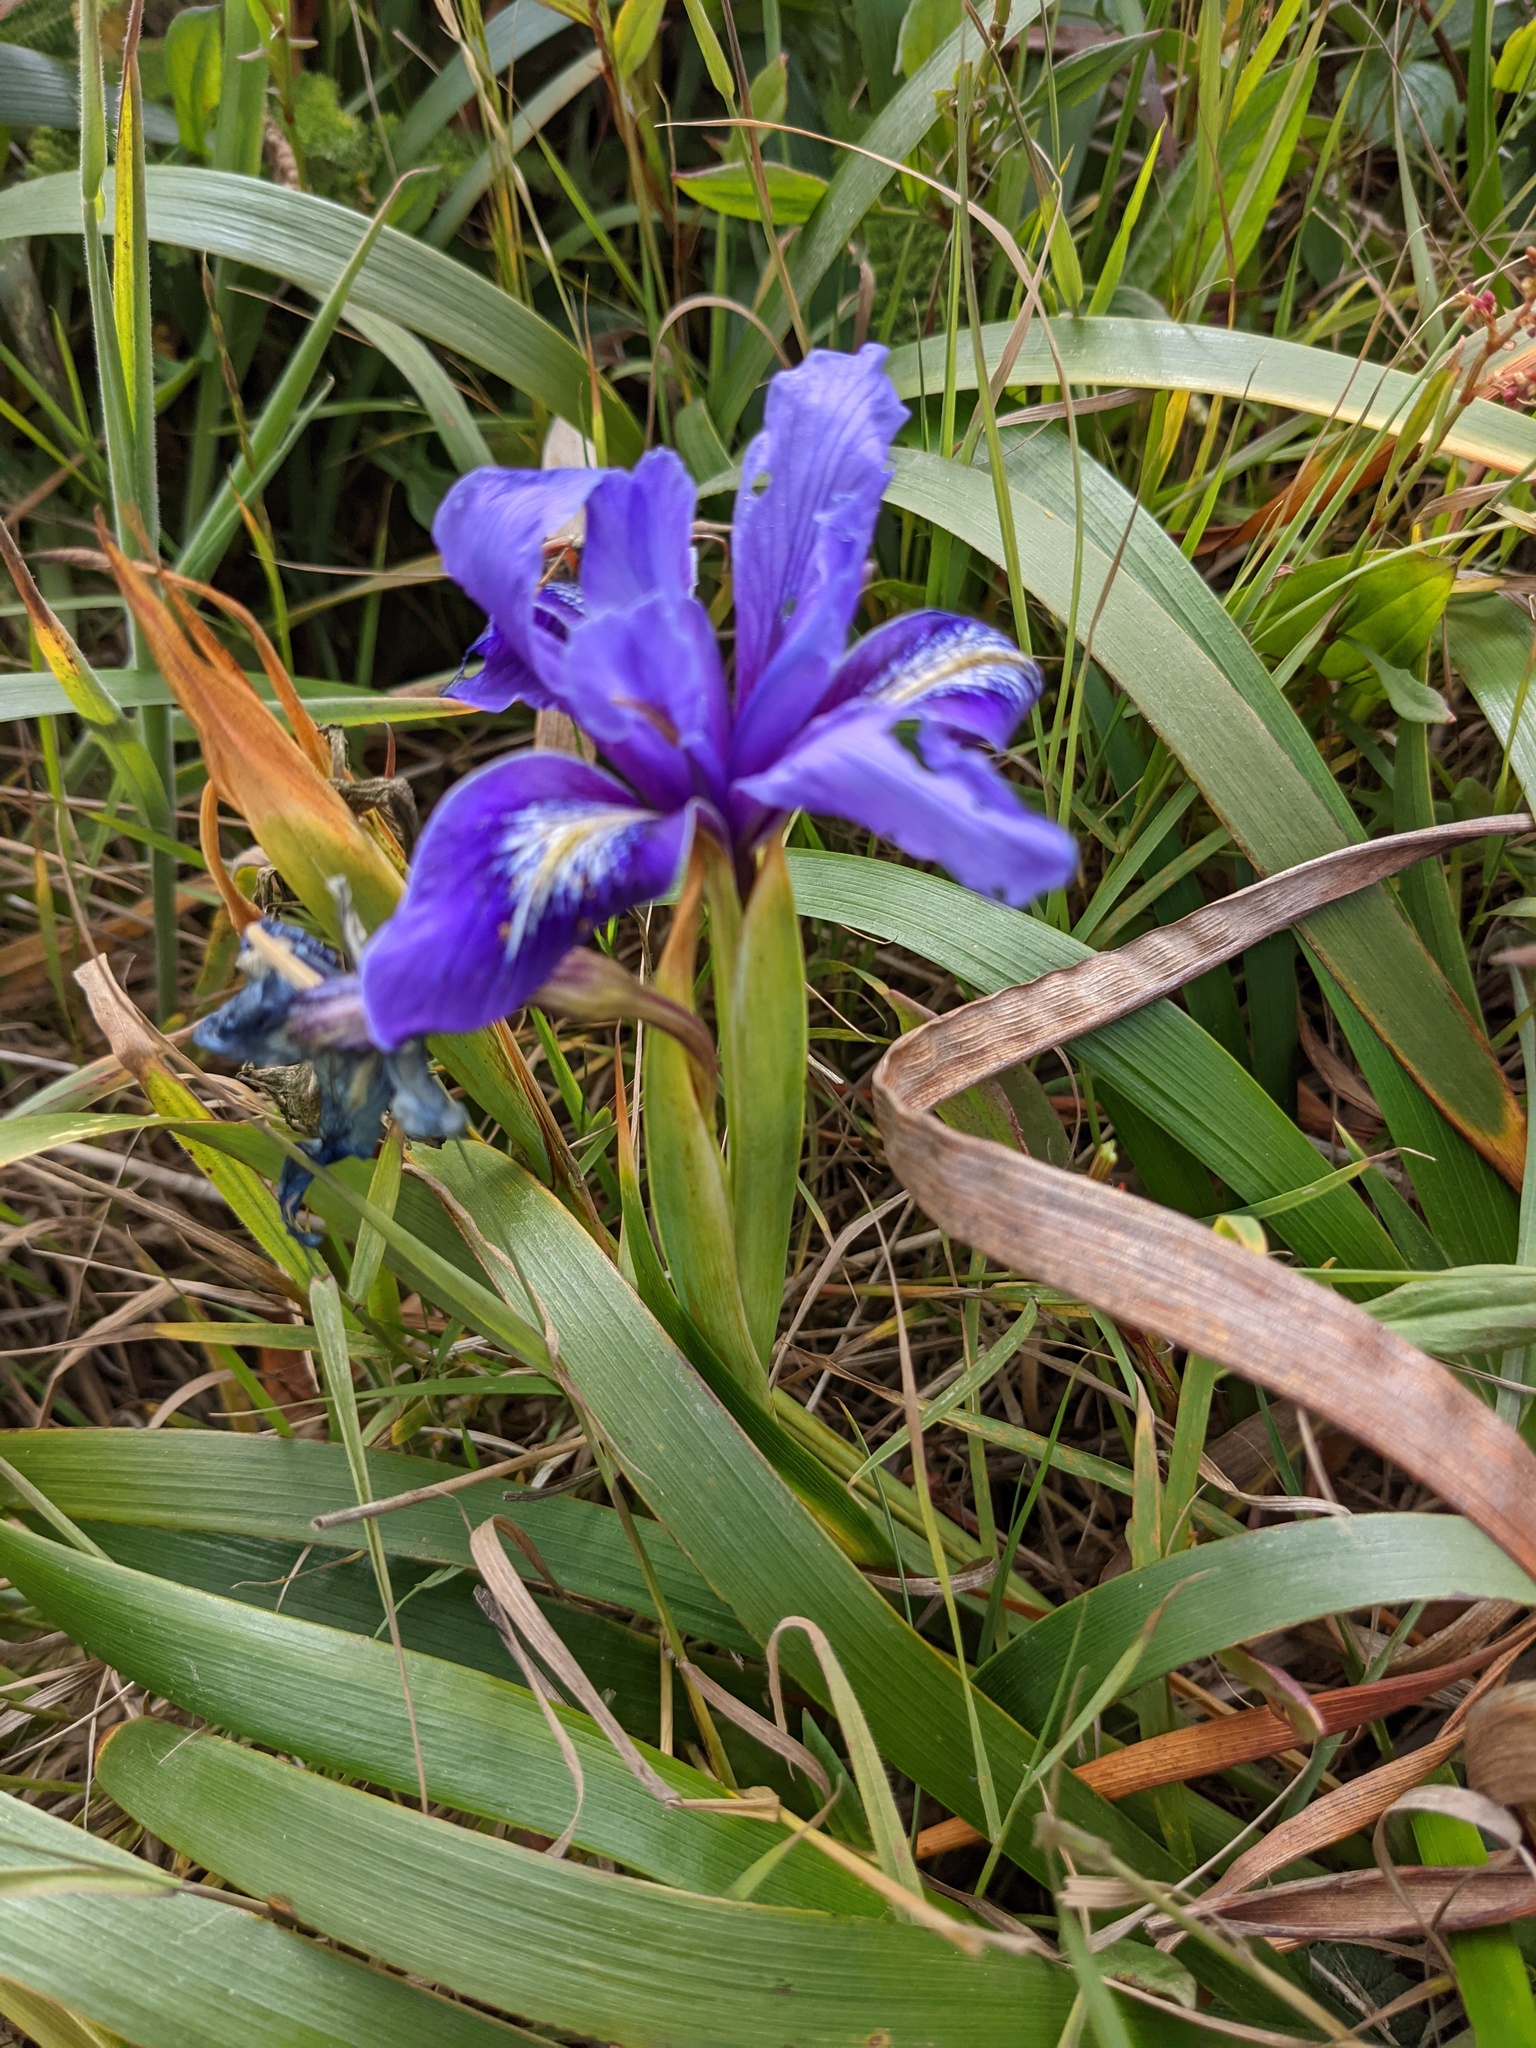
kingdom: Plantae
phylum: Tracheophyta
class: Liliopsida
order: Asparagales
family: Iridaceae
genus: Iris
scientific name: Iris douglasiana
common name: Marin iris
